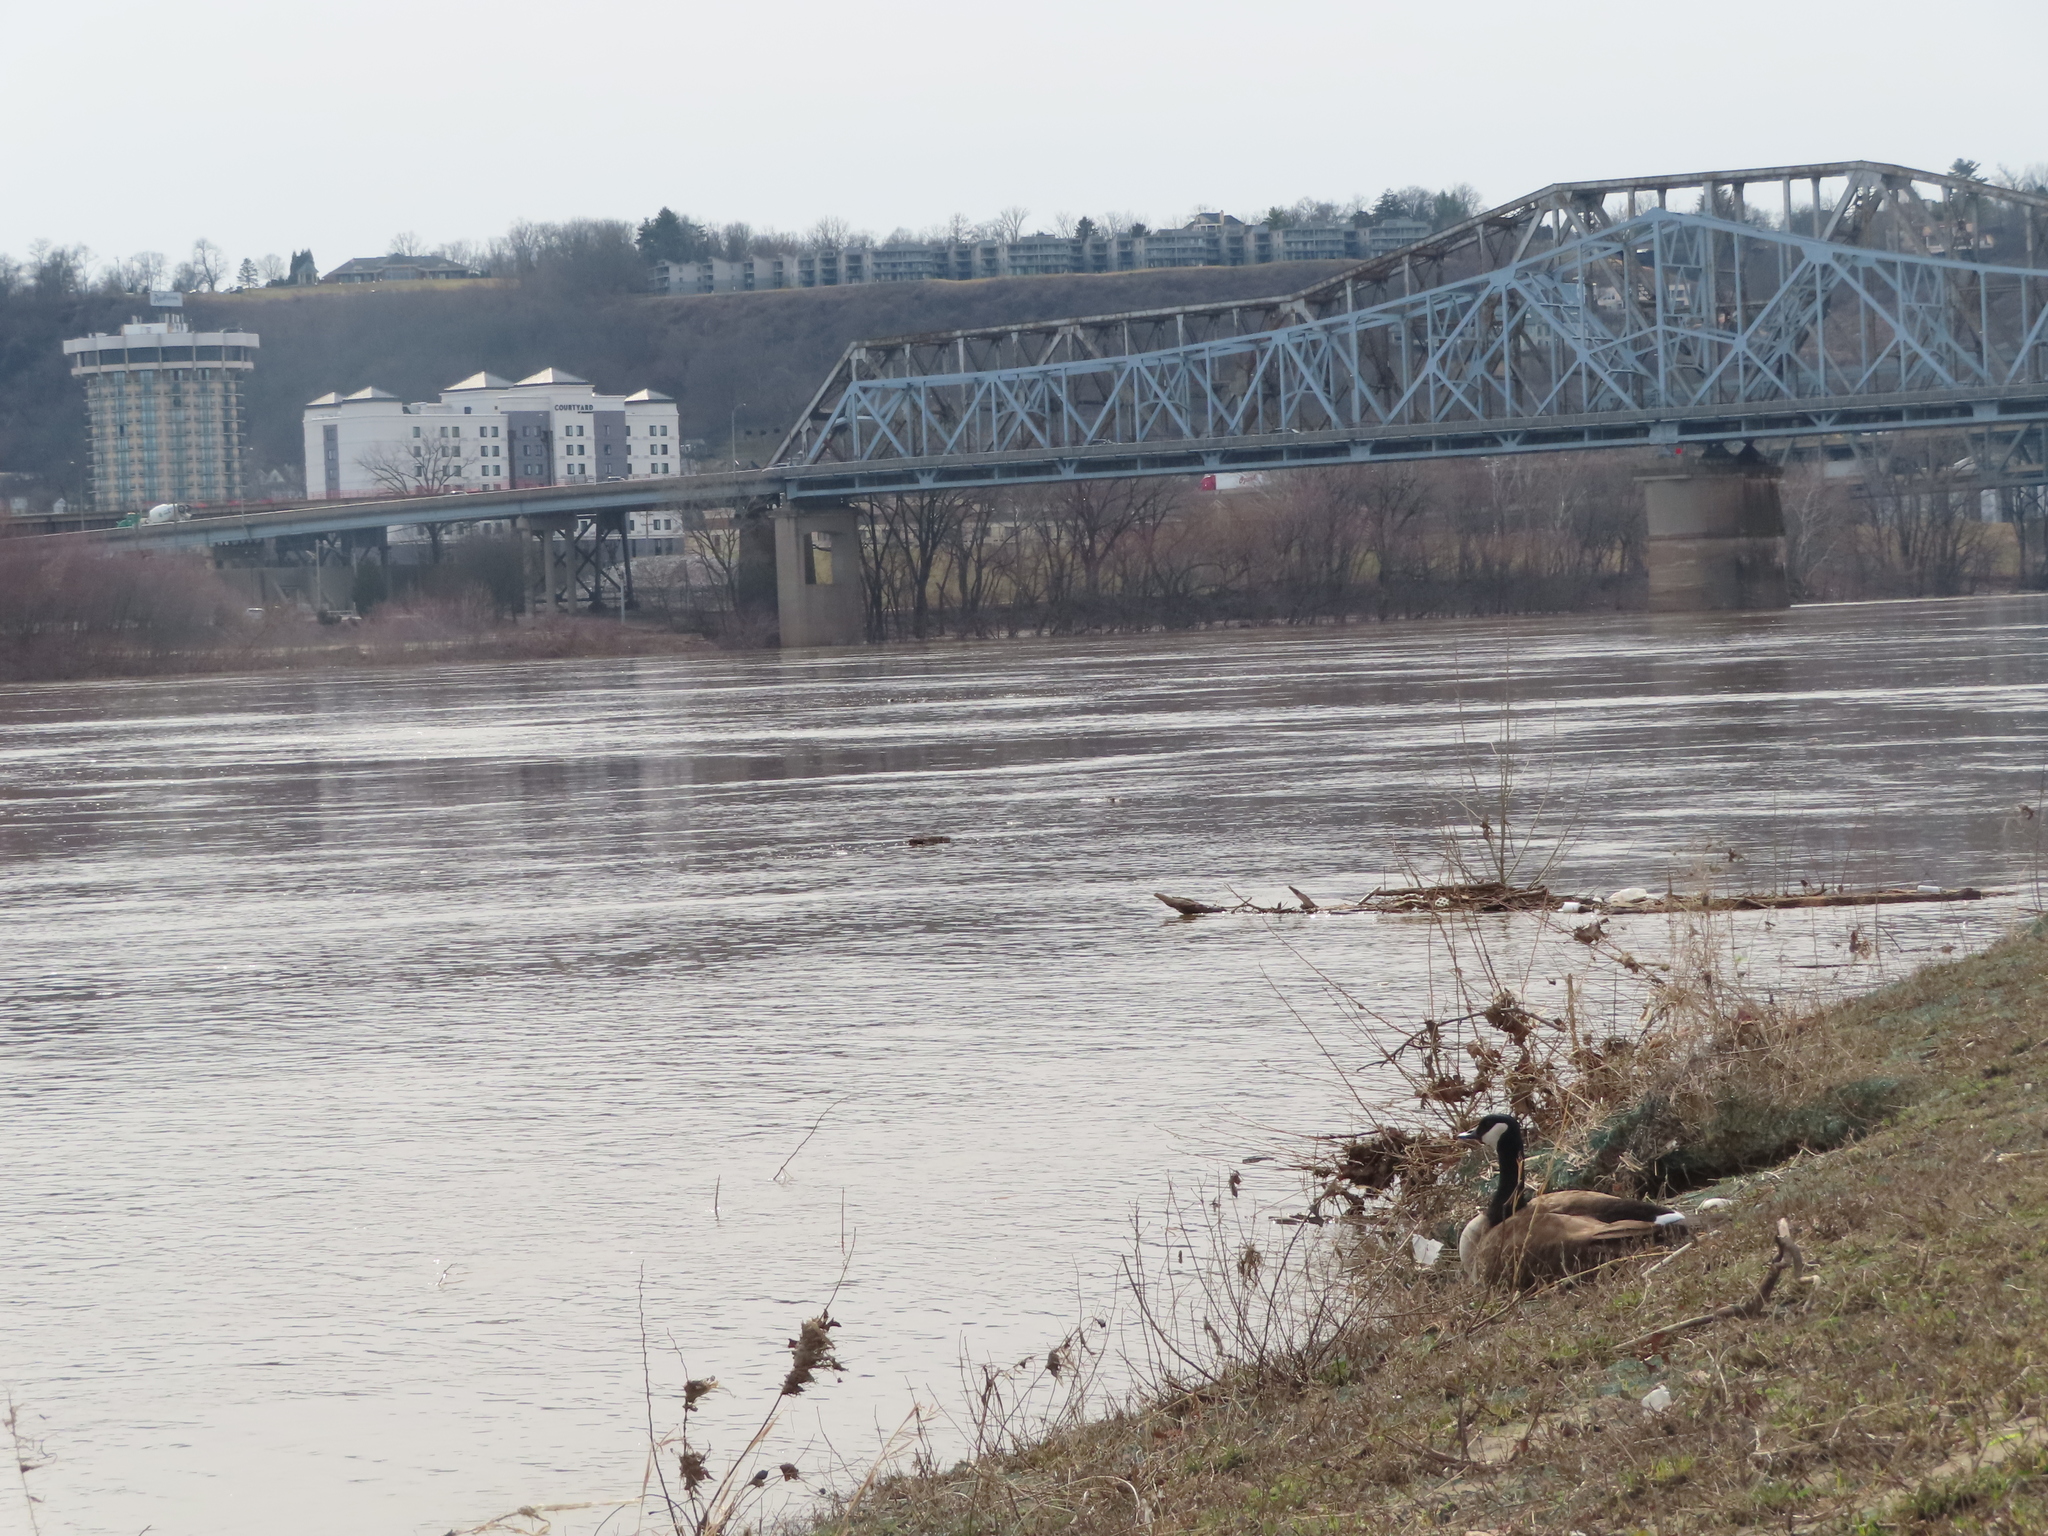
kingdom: Animalia
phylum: Chordata
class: Aves
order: Anseriformes
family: Anatidae
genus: Branta
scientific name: Branta canadensis
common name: Canada goose
